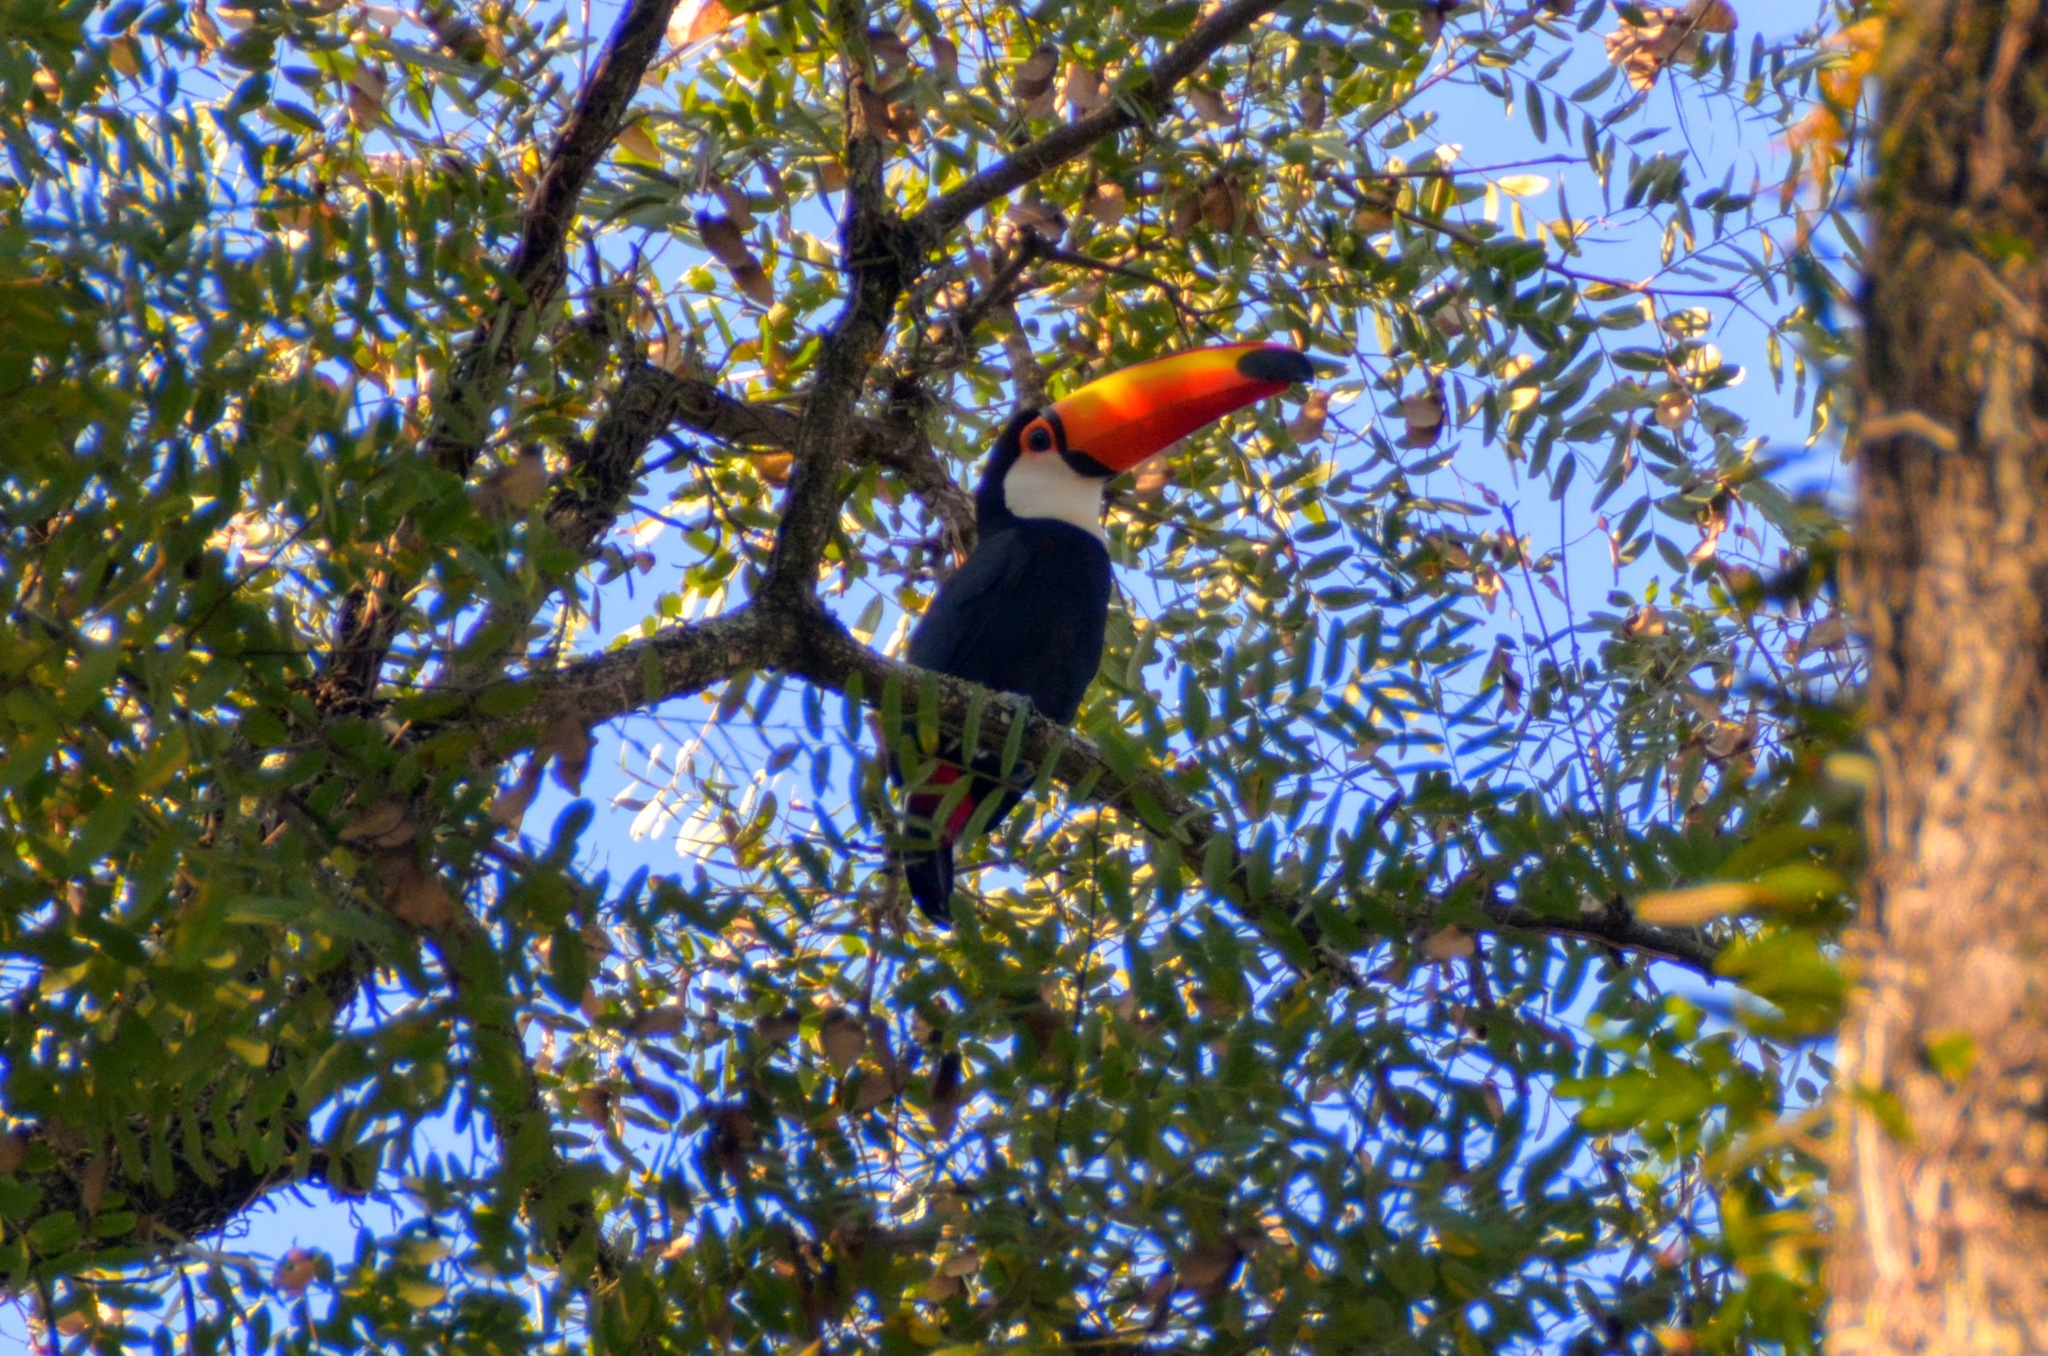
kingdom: Animalia
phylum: Chordata
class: Aves
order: Piciformes
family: Ramphastidae
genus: Ramphastos
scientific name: Ramphastos toco
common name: Toco toucan
